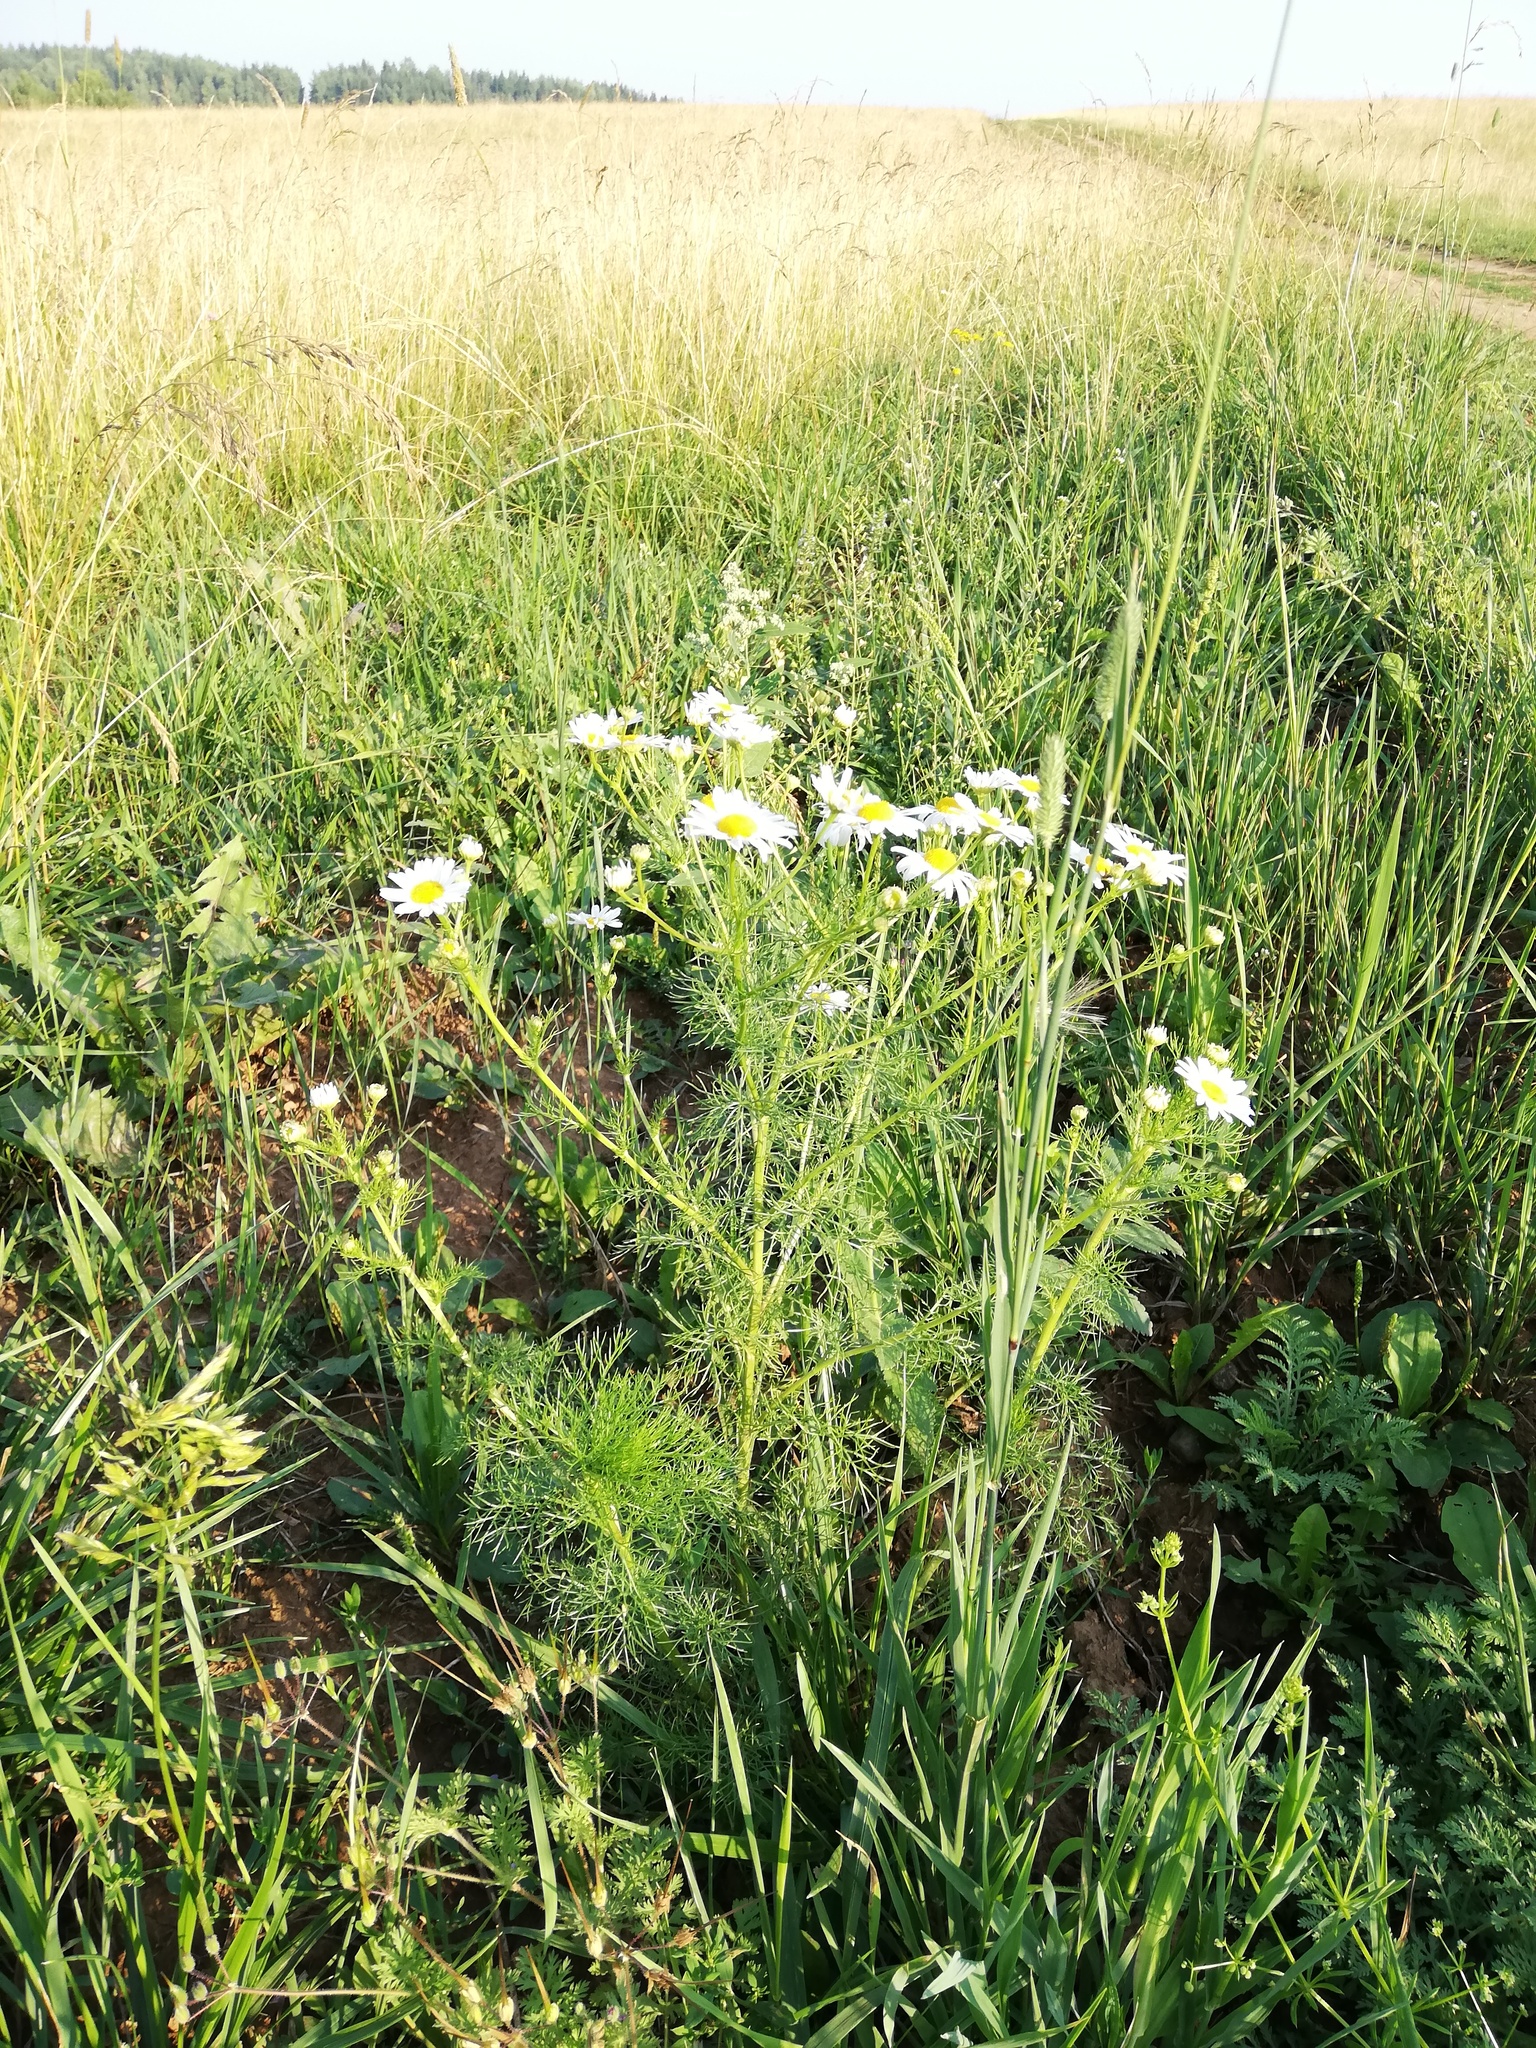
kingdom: Plantae
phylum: Tracheophyta
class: Magnoliopsida
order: Asterales
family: Asteraceae
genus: Tripleurospermum
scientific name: Tripleurospermum inodorum
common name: Scentless mayweed
